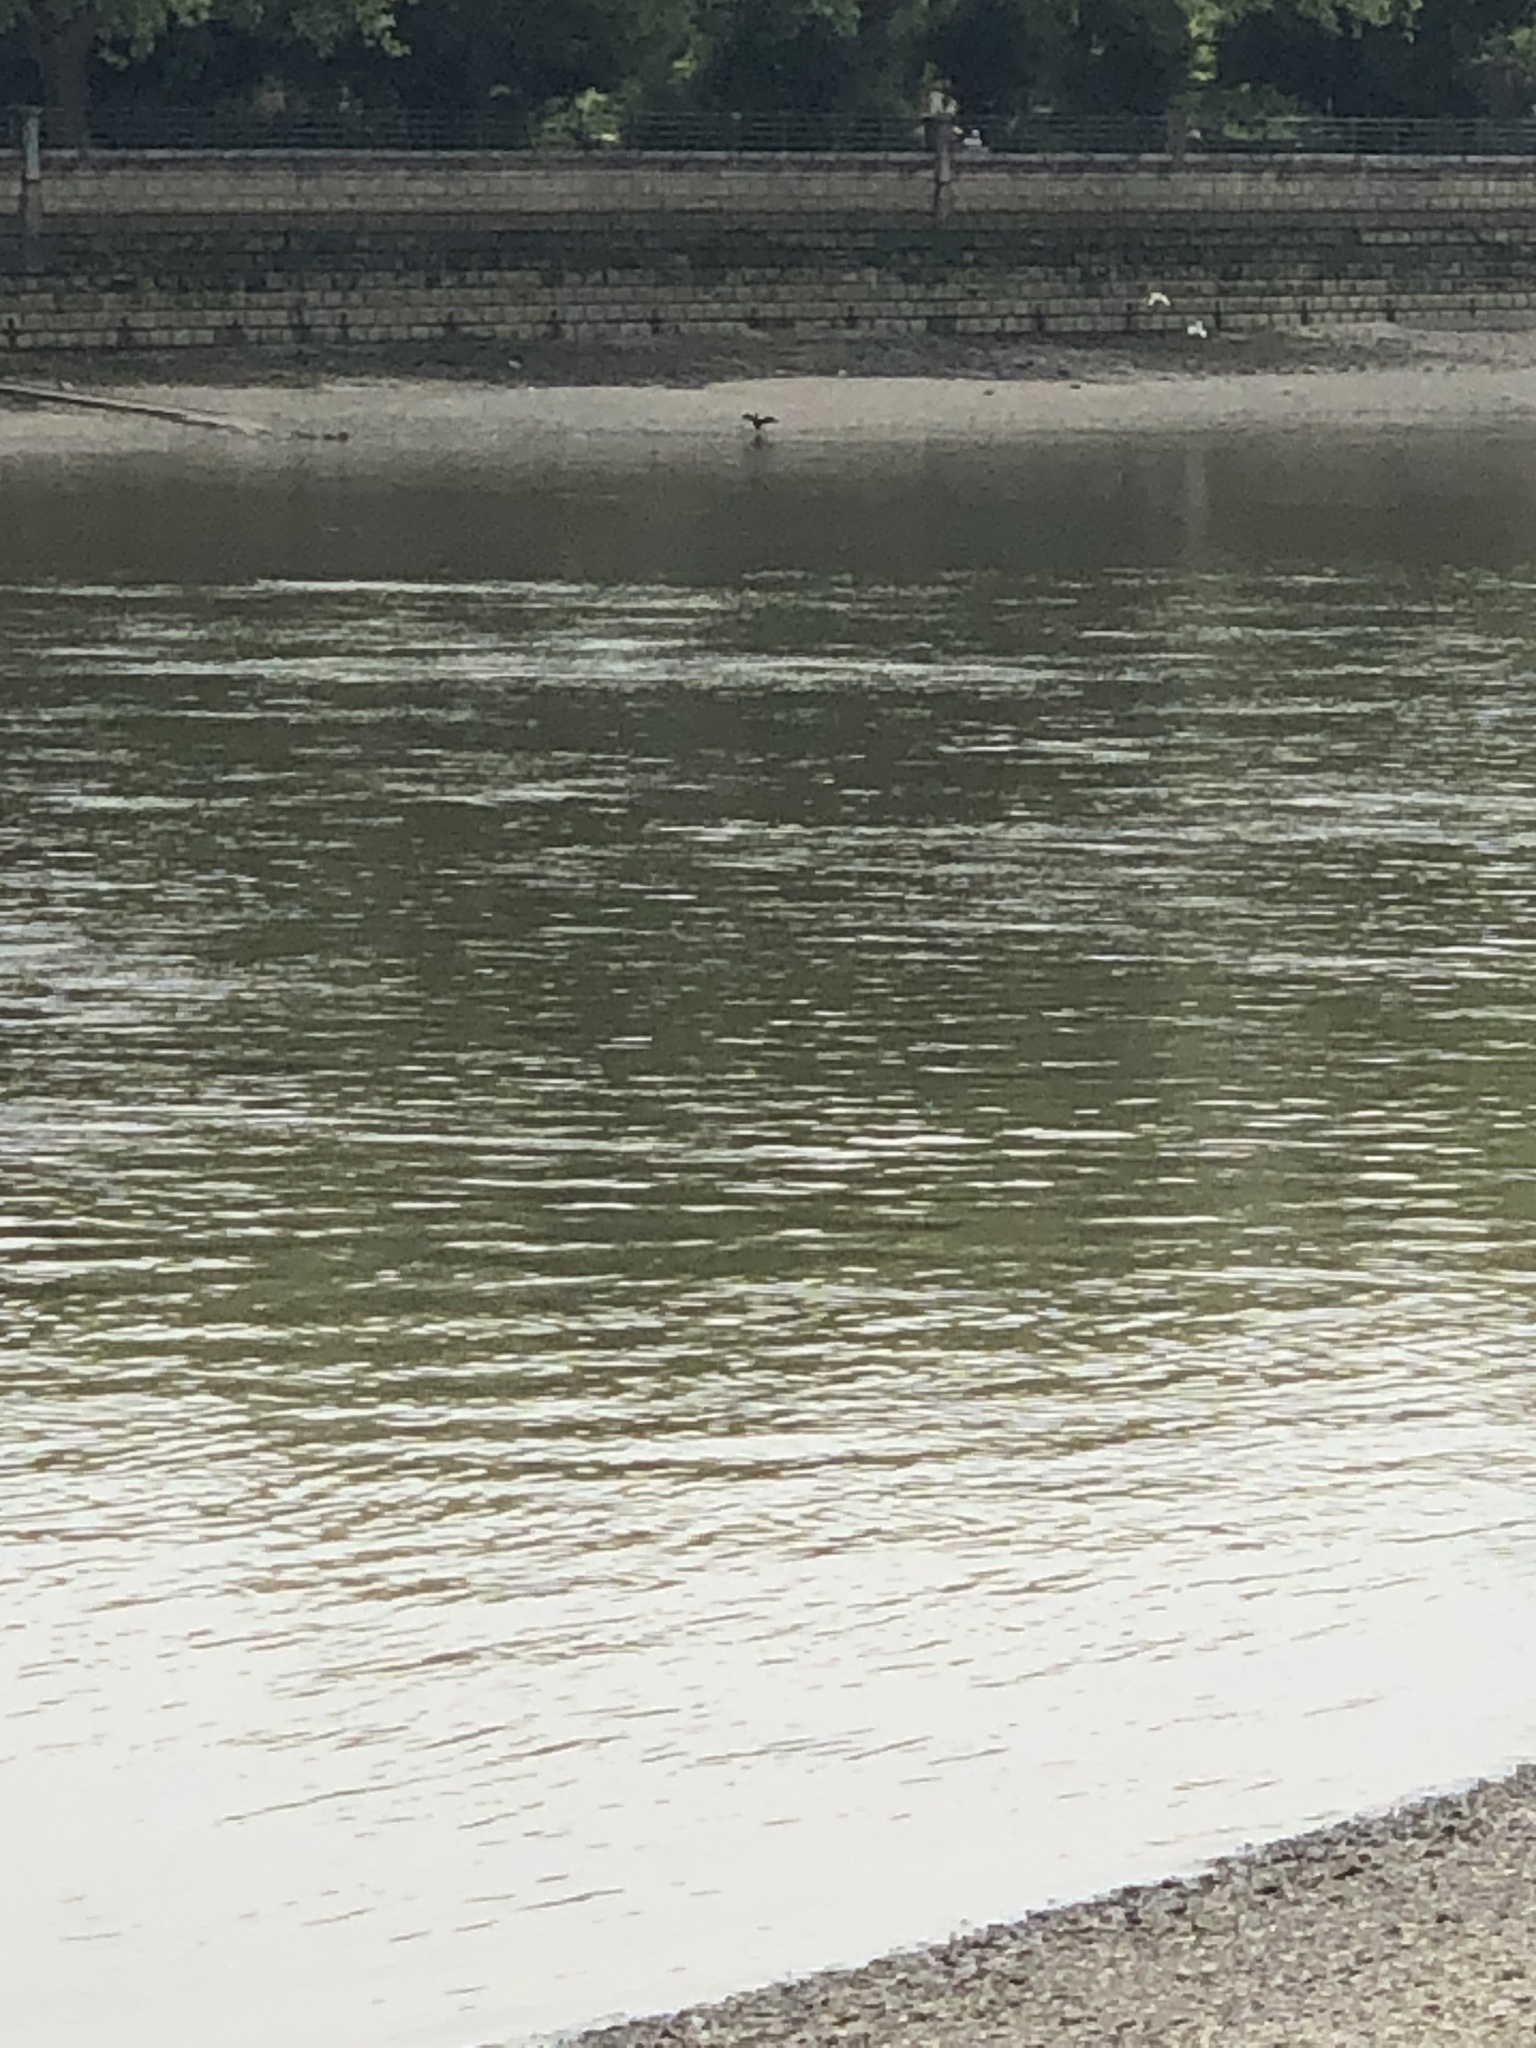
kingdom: Animalia
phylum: Chordata
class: Aves
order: Suliformes
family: Phalacrocoracidae
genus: Phalacrocorax
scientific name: Phalacrocorax carbo
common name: Great cormorant
